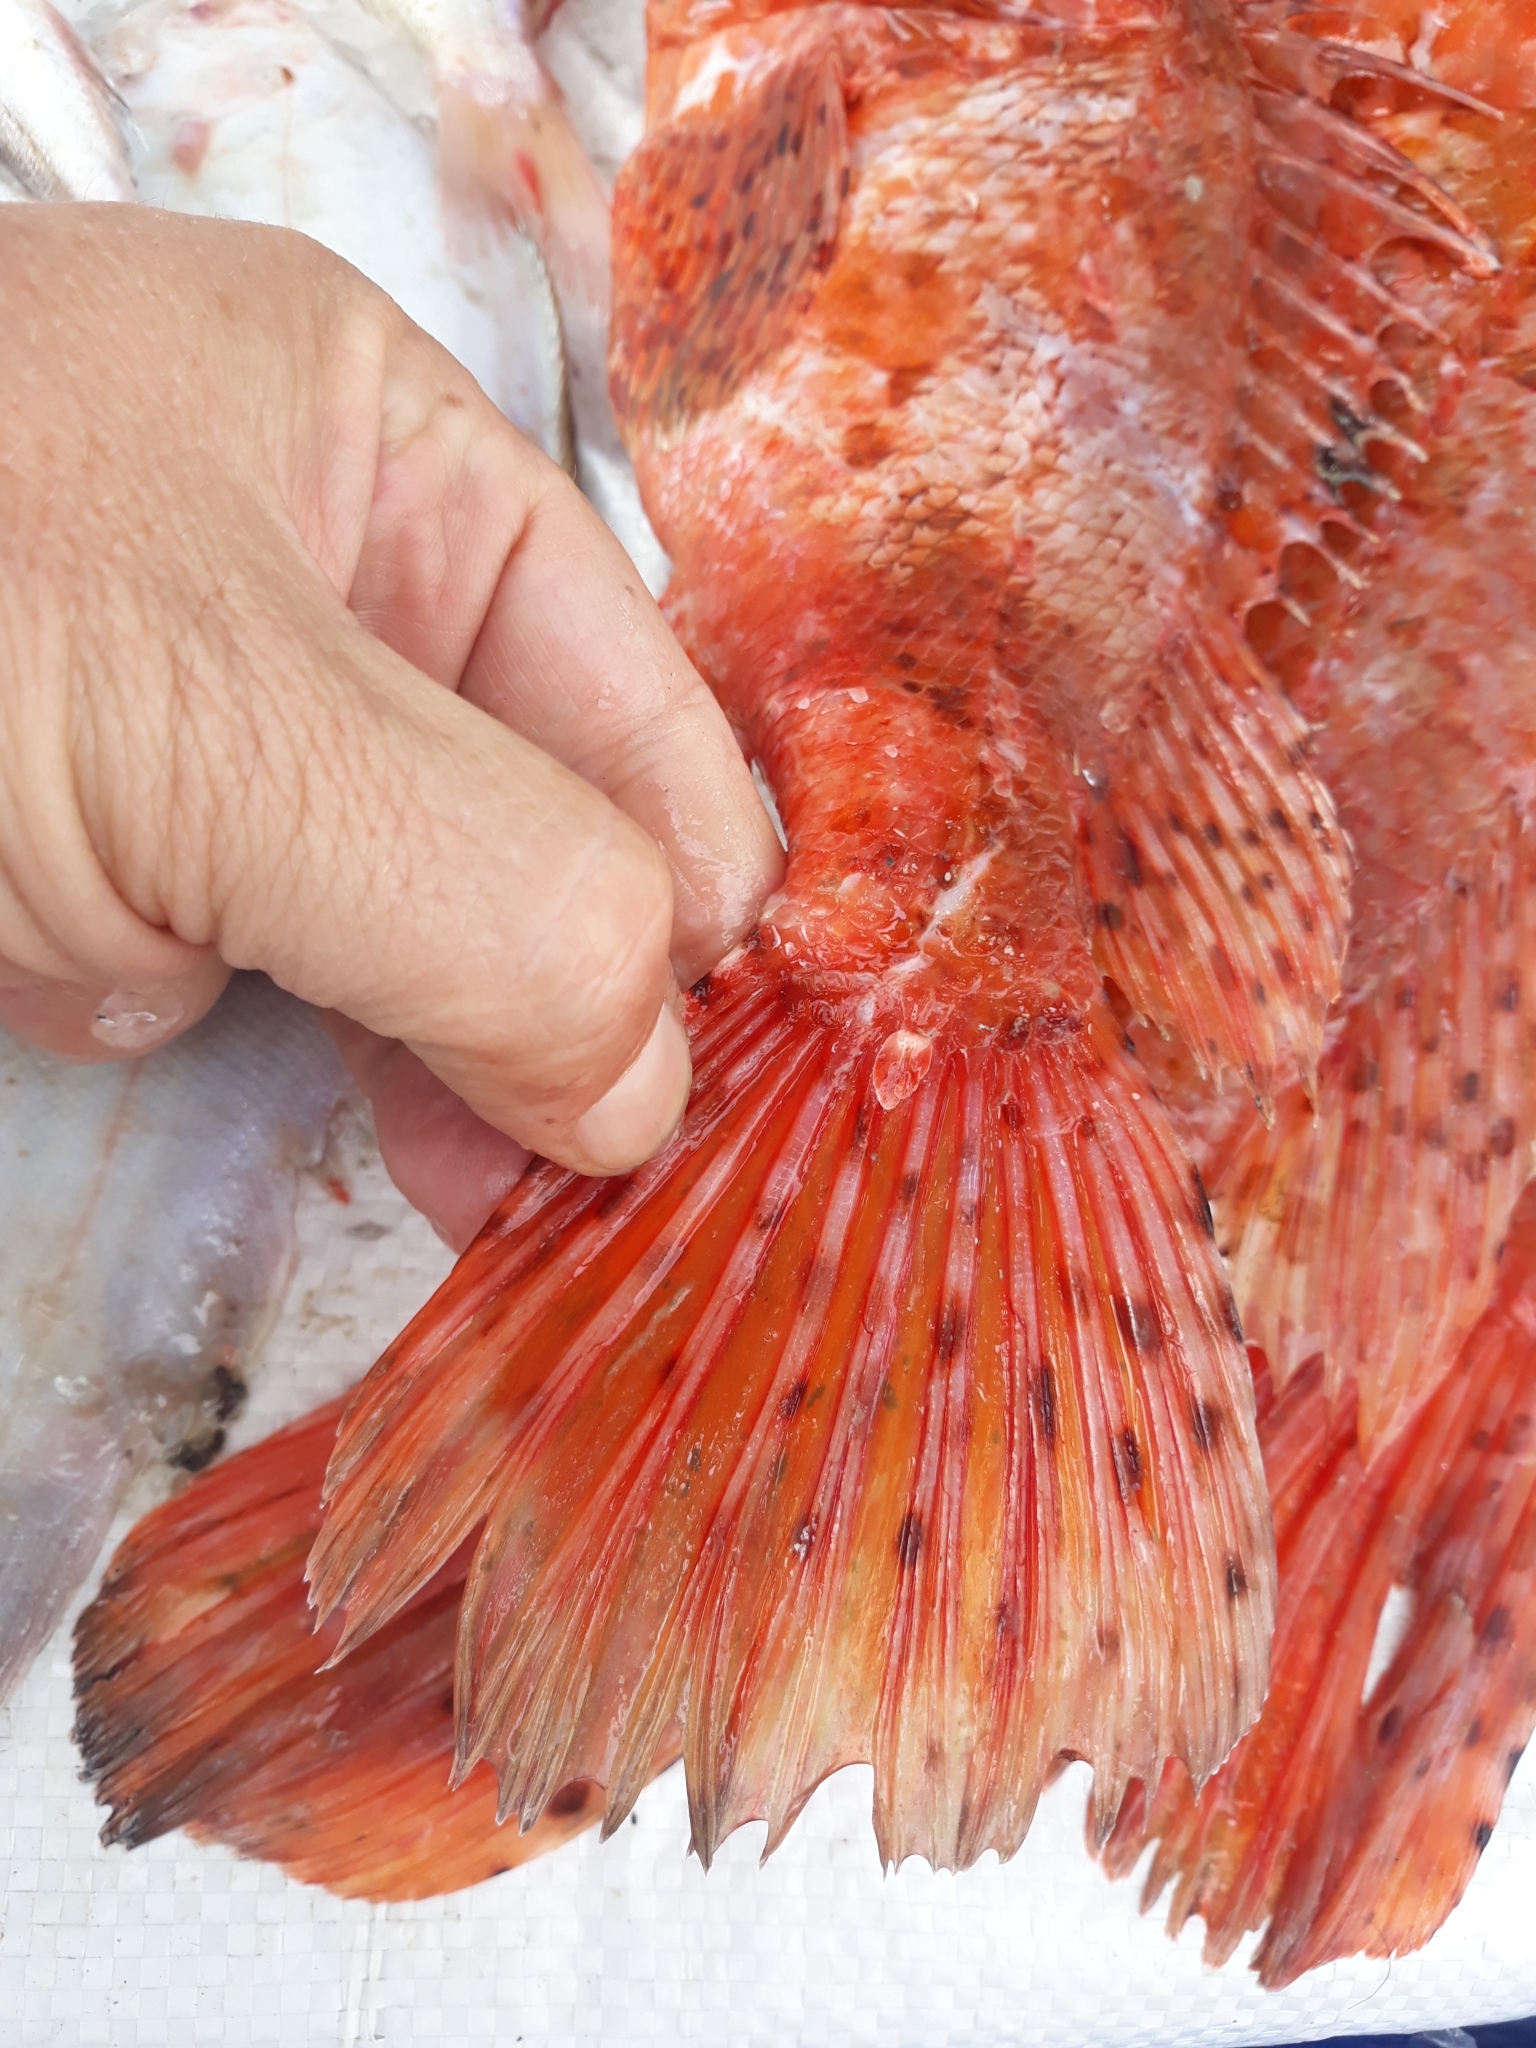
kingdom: Animalia
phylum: Chordata
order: Scorpaeniformes
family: Scorpaenidae
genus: Scorpaena
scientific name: Scorpaena scrofa
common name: Red scorpionfish
